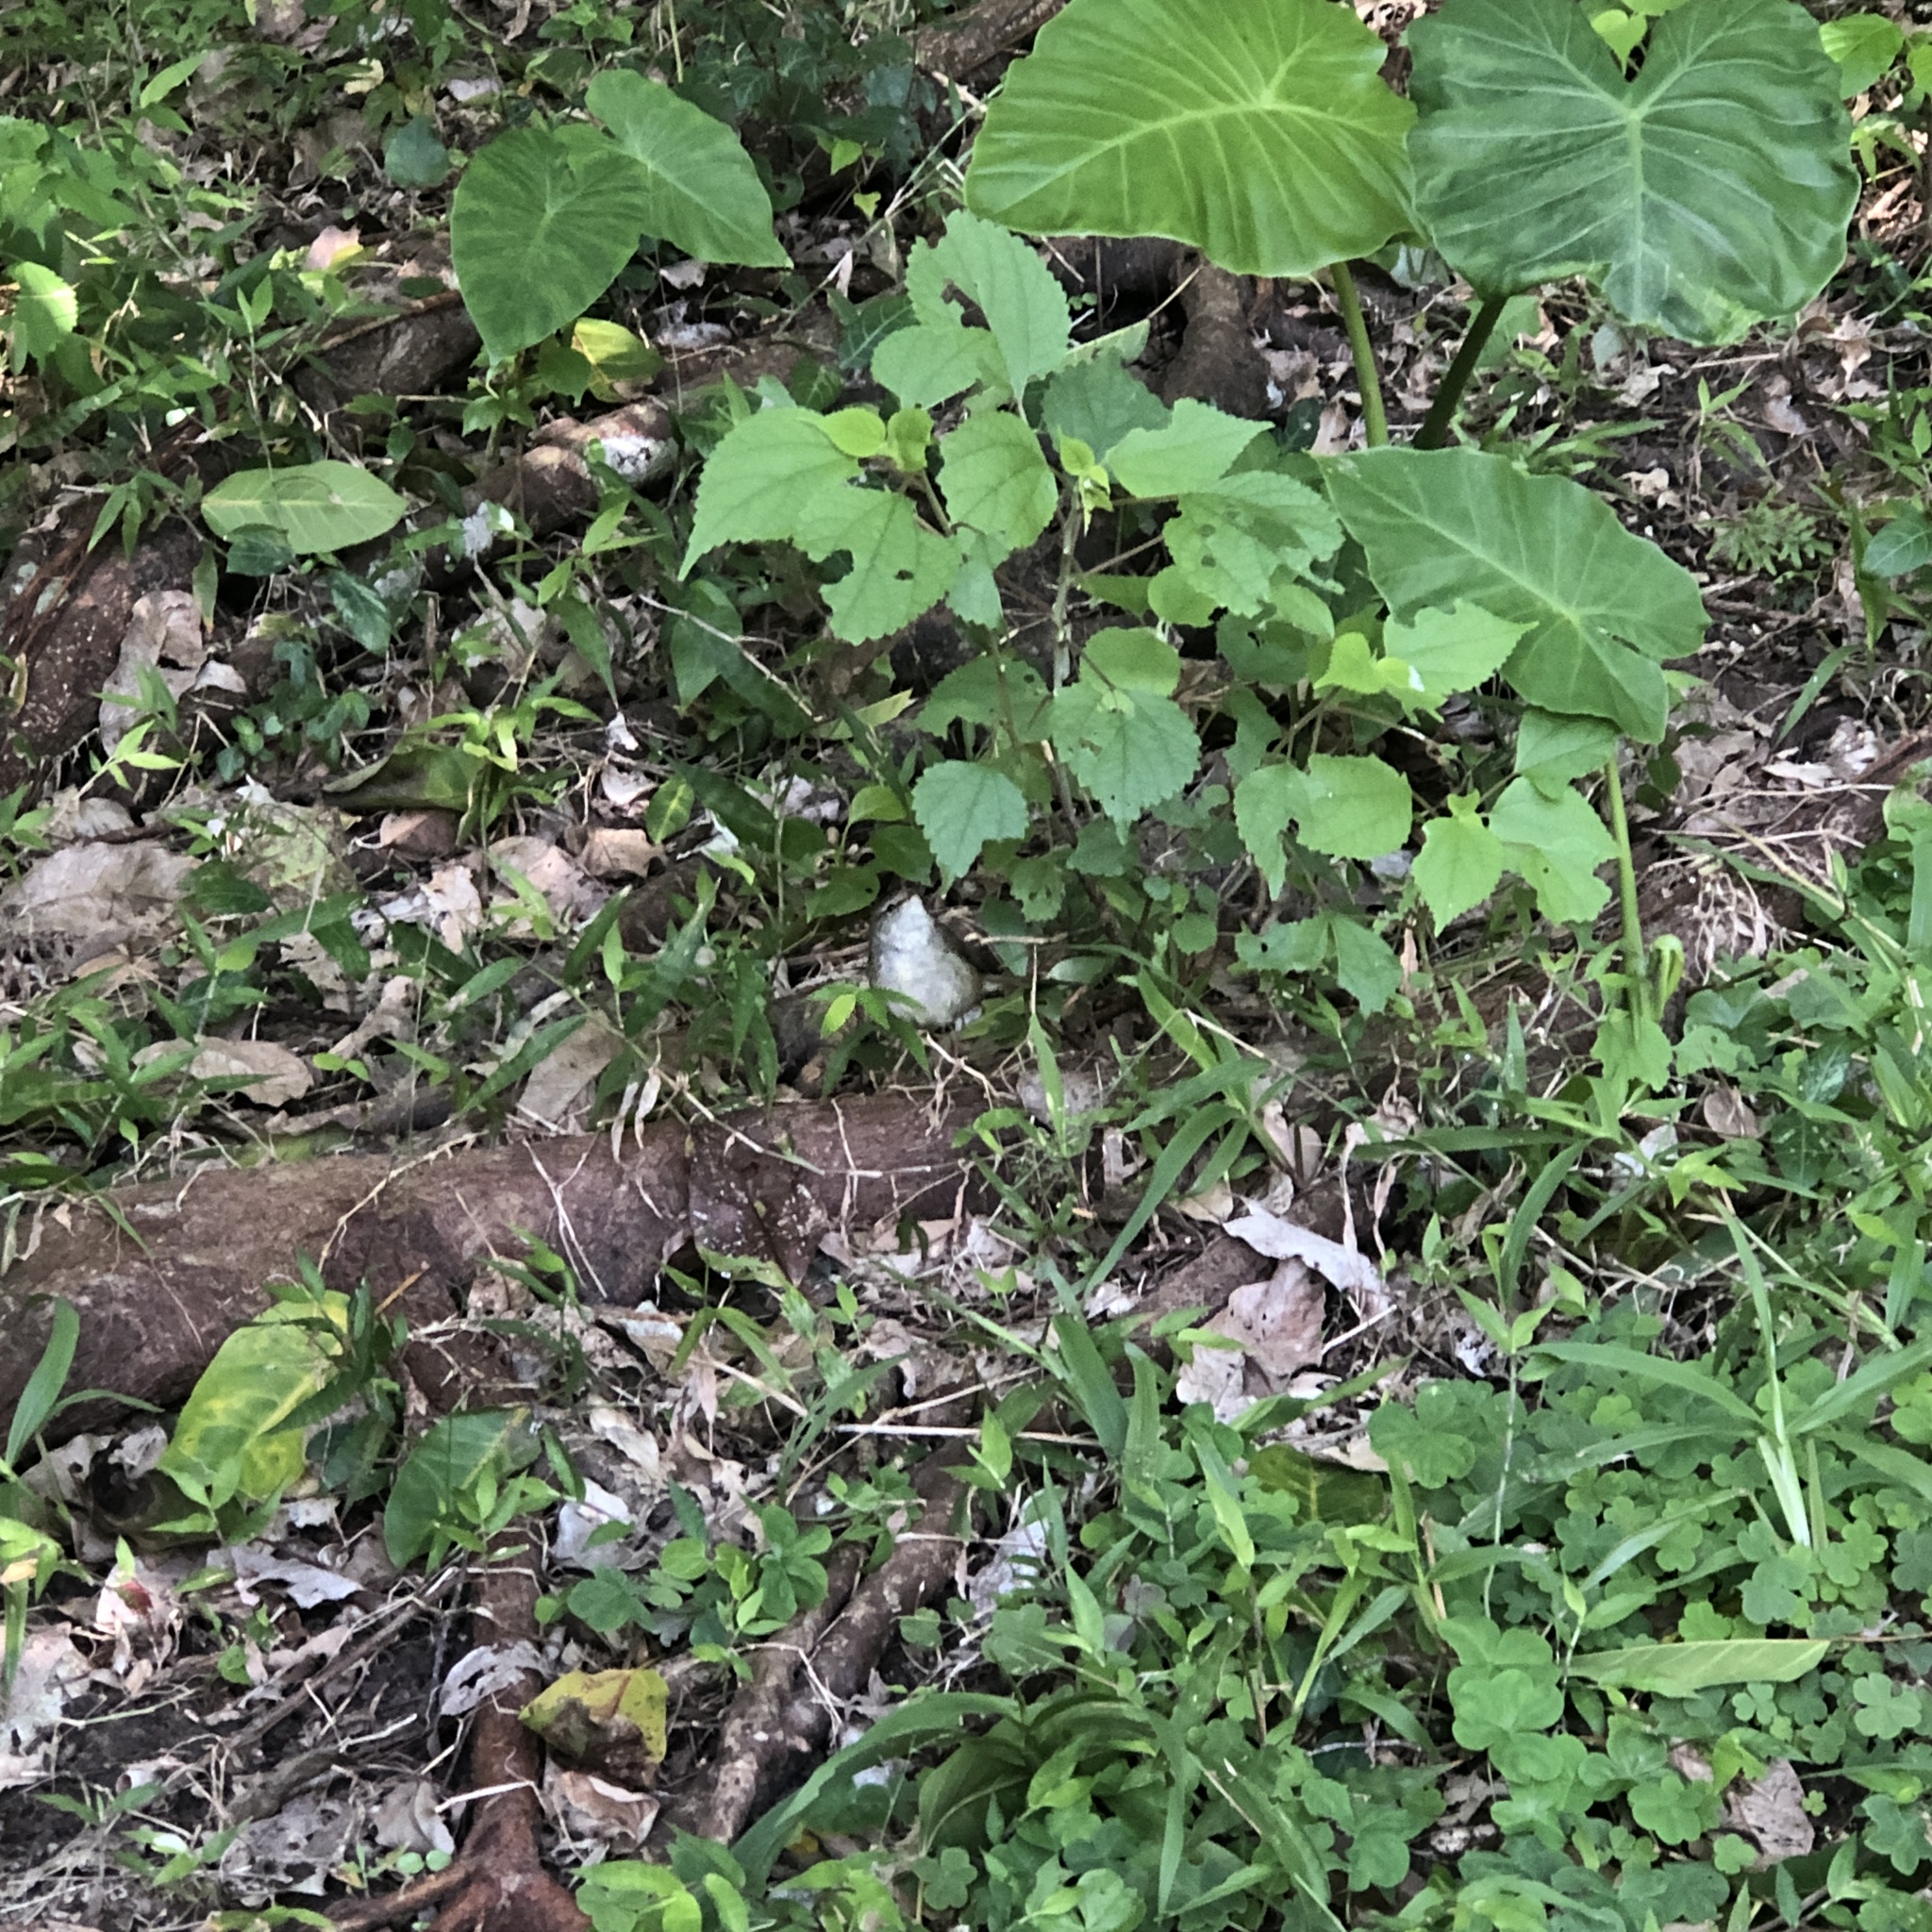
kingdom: Animalia
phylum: Chordata
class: Aves
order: Passeriformes
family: Cettiidae
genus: Horornis
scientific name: Horornis diphone
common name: Japanese bush warbler
